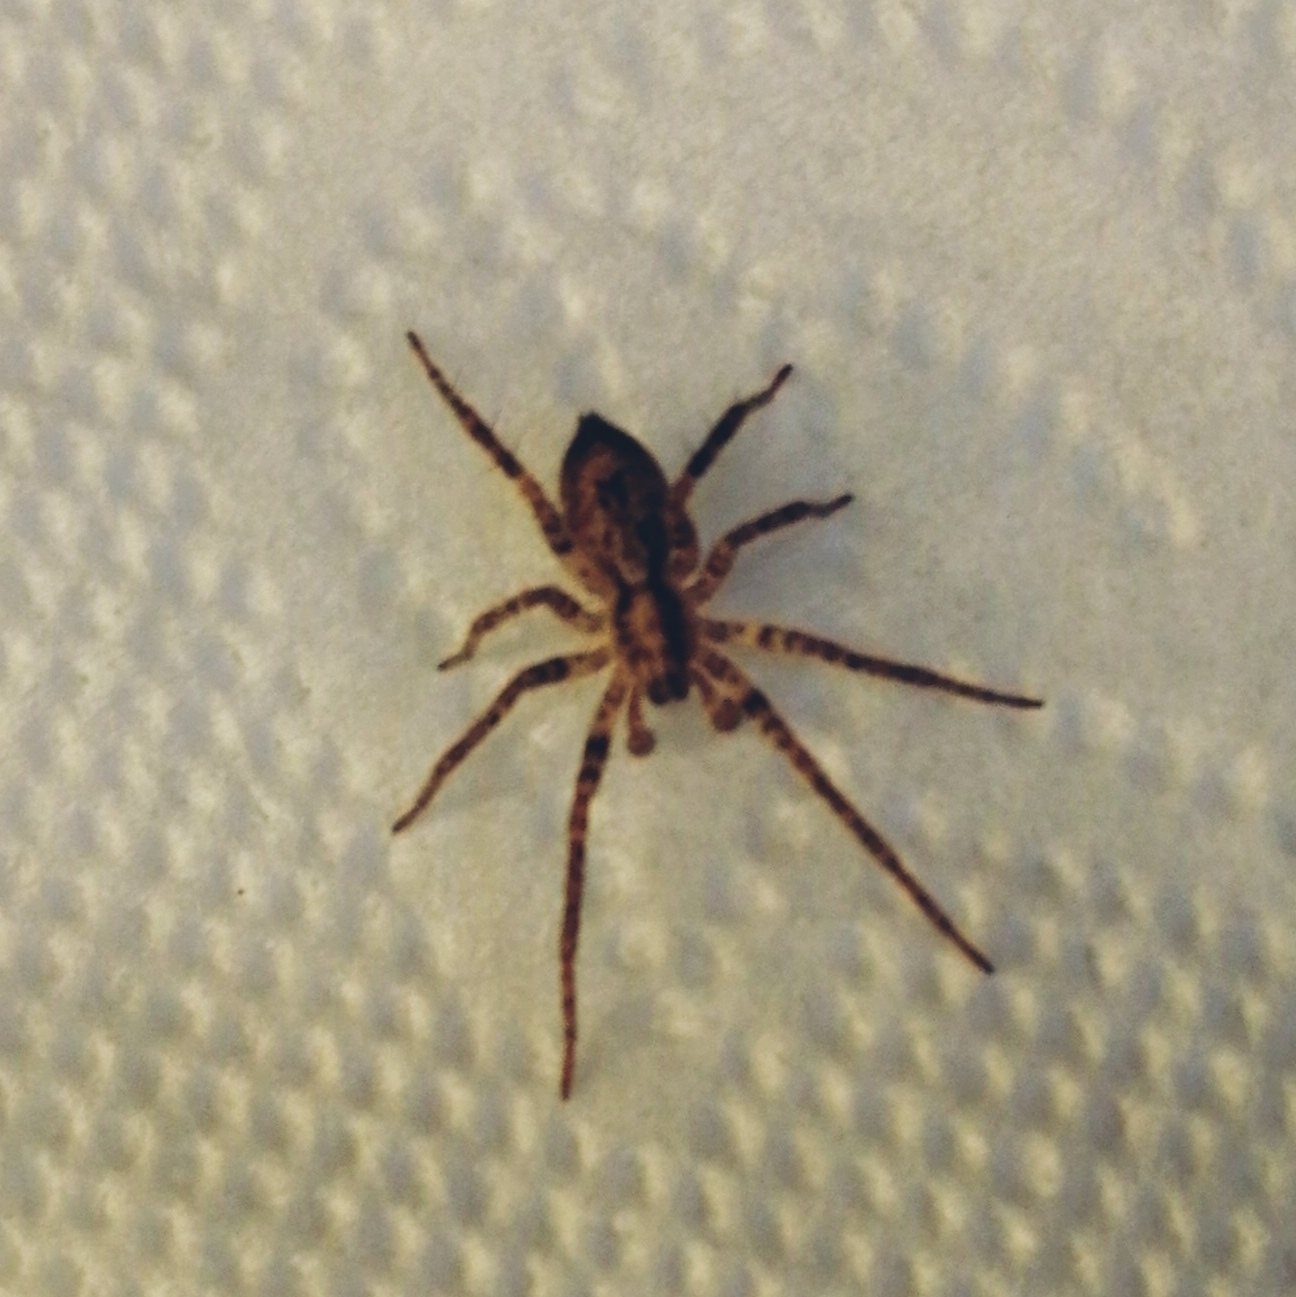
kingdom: Animalia
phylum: Arthropoda
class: Arachnida
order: Araneae
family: Anyphaenidae
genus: Anyphaena
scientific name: Anyphaena accentuata
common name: Buzzing spider
